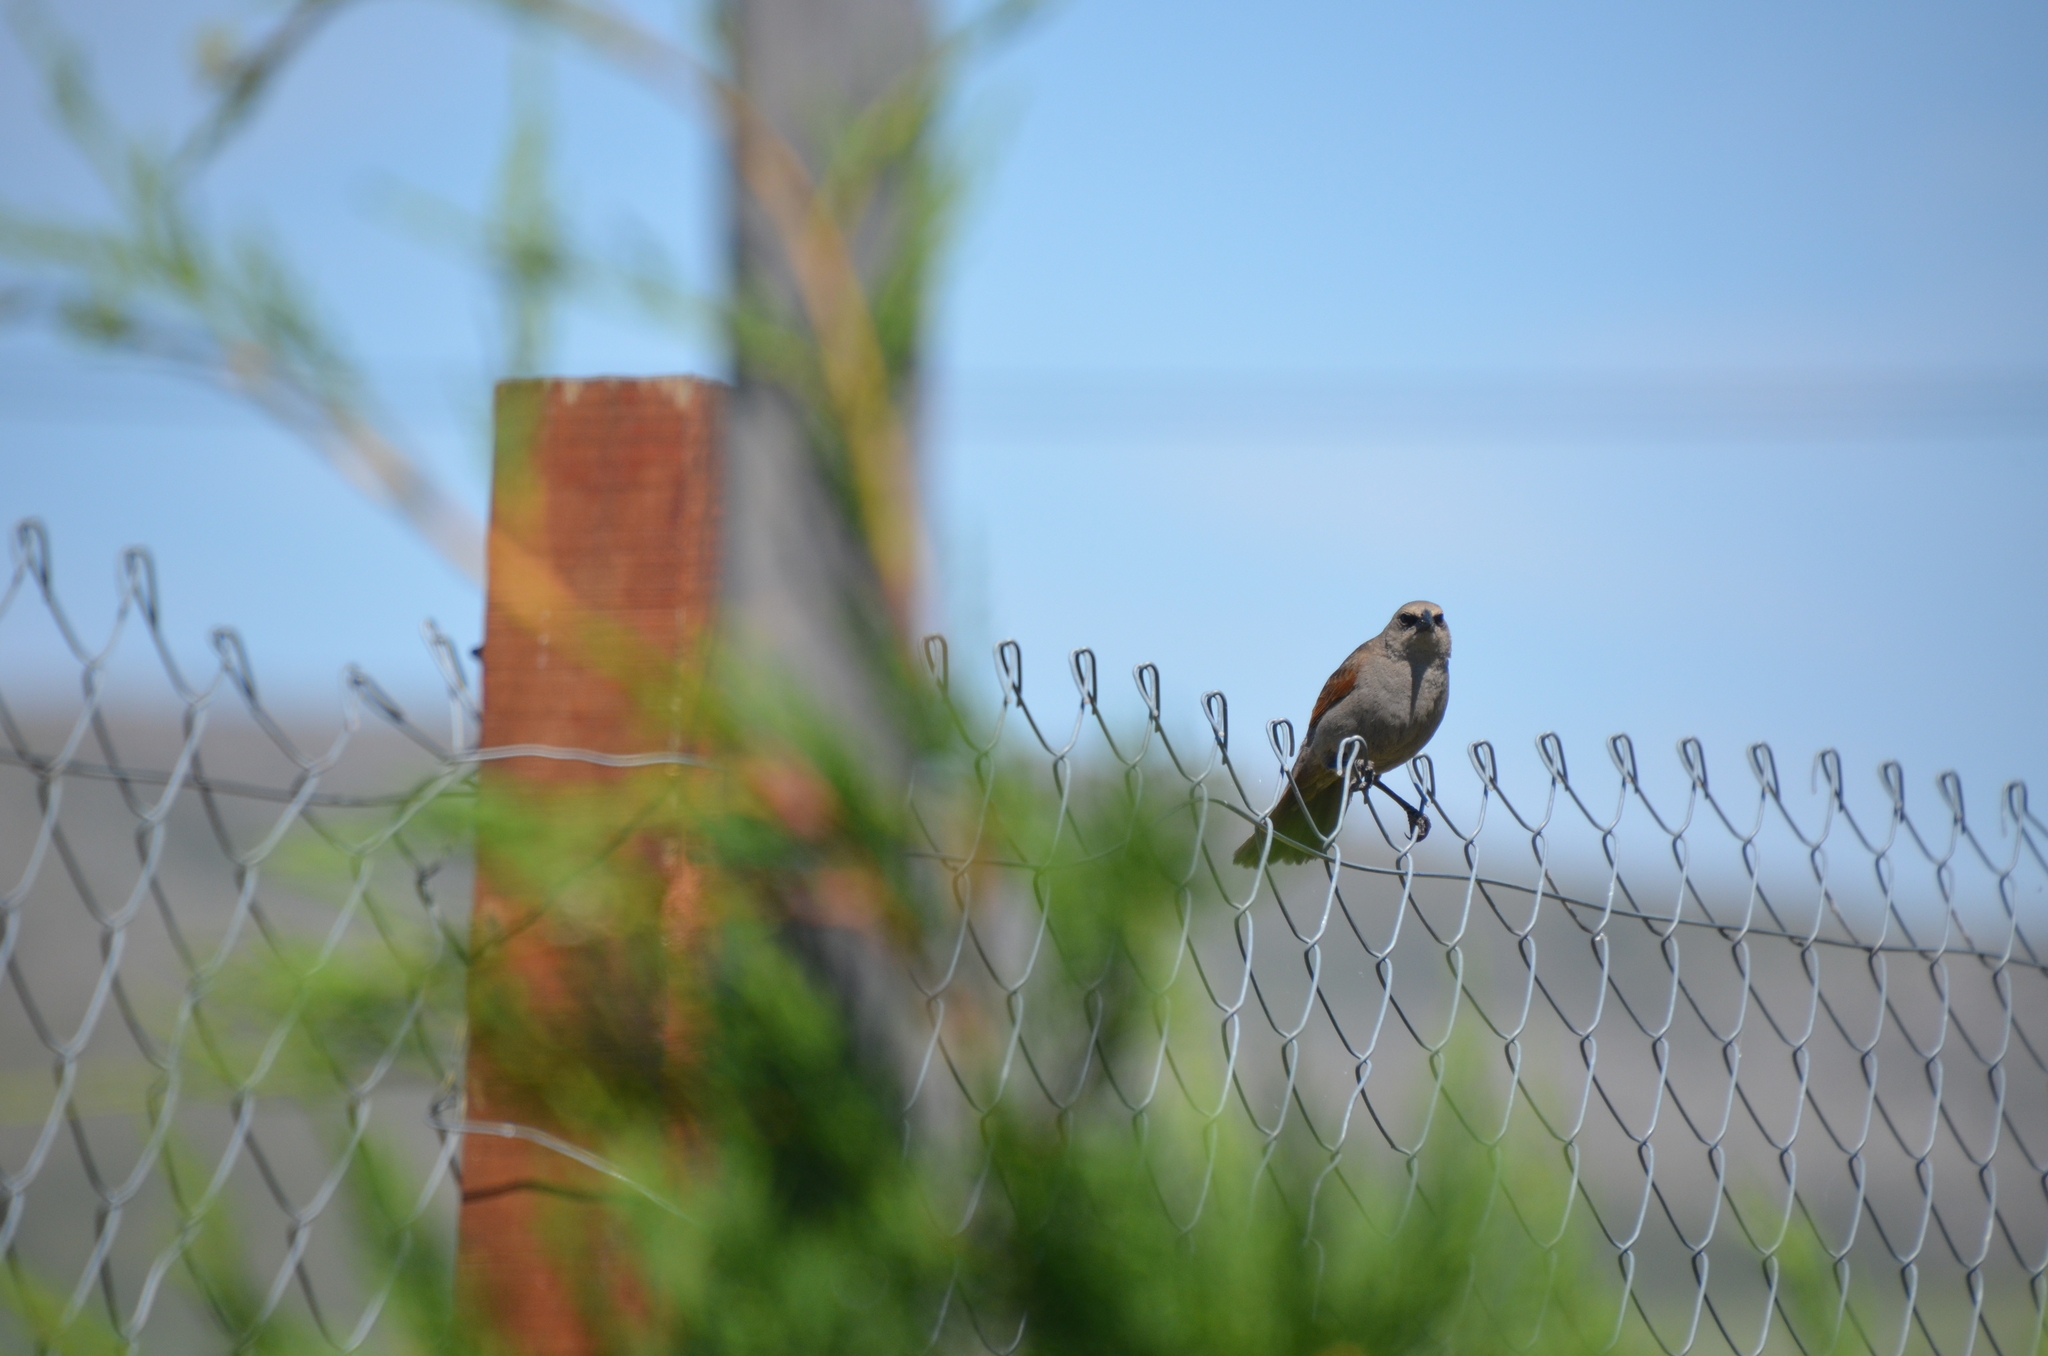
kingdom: Animalia
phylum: Chordata
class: Aves
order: Passeriformes
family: Icteridae
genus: Agelaioides
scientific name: Agelaioides badius
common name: Baywing
